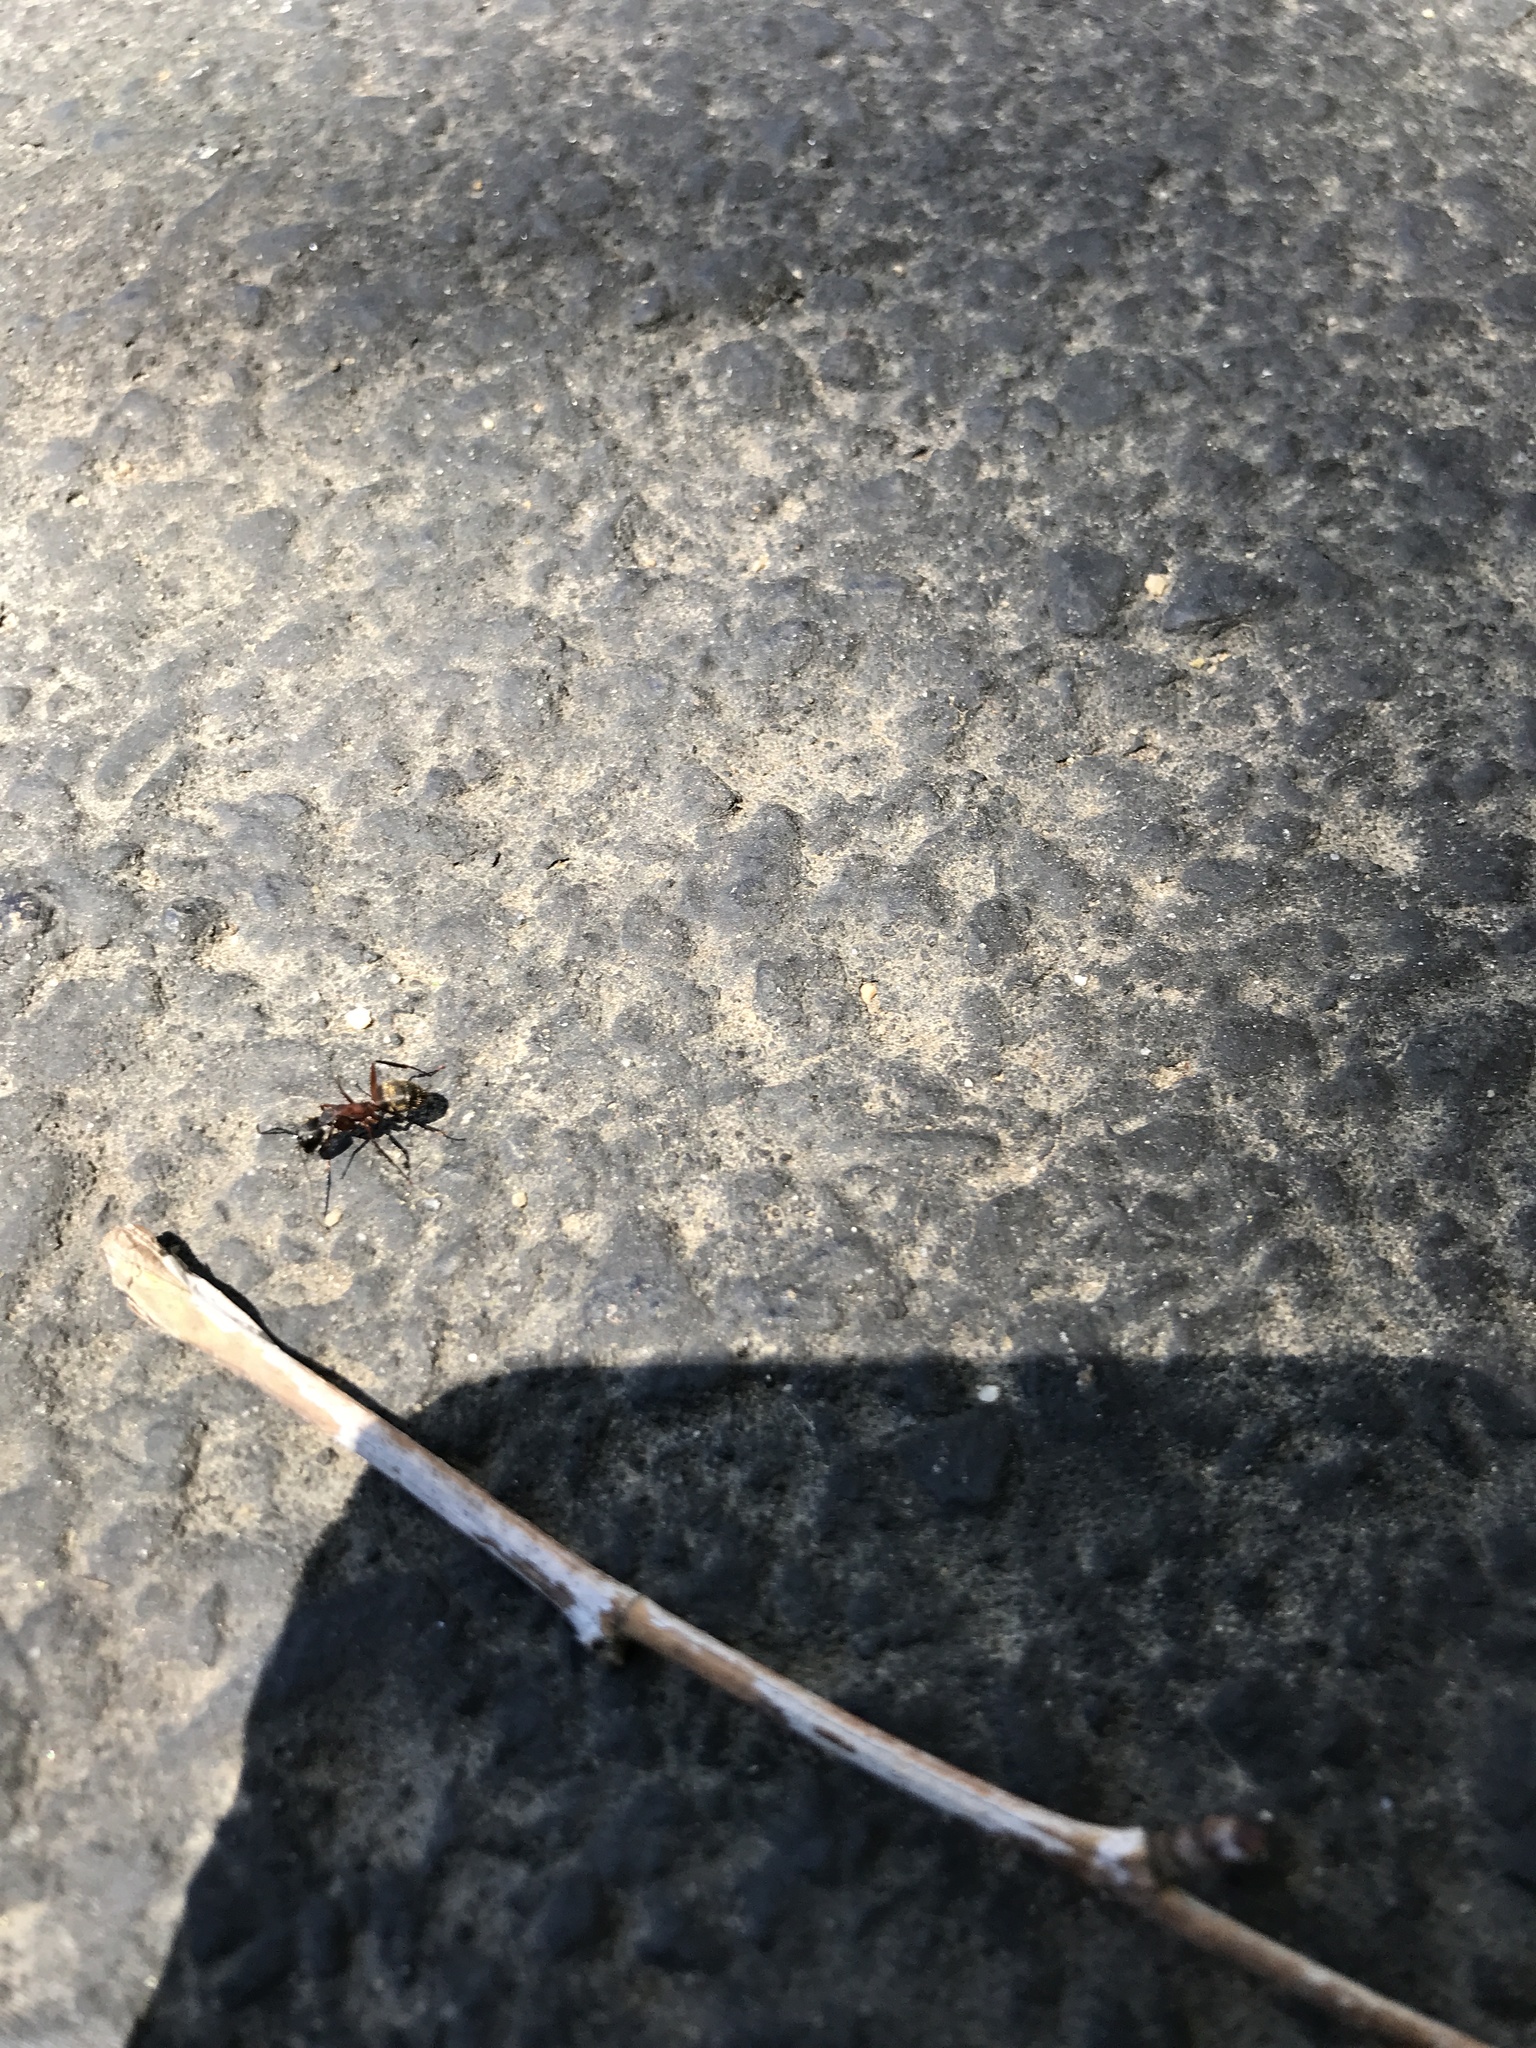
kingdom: Animalia
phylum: Arthropoda
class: Insecta
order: Hymenoptera
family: Formicidae
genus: Camponotus
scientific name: Camponotus chromaiodes
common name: Red carpenter ant
